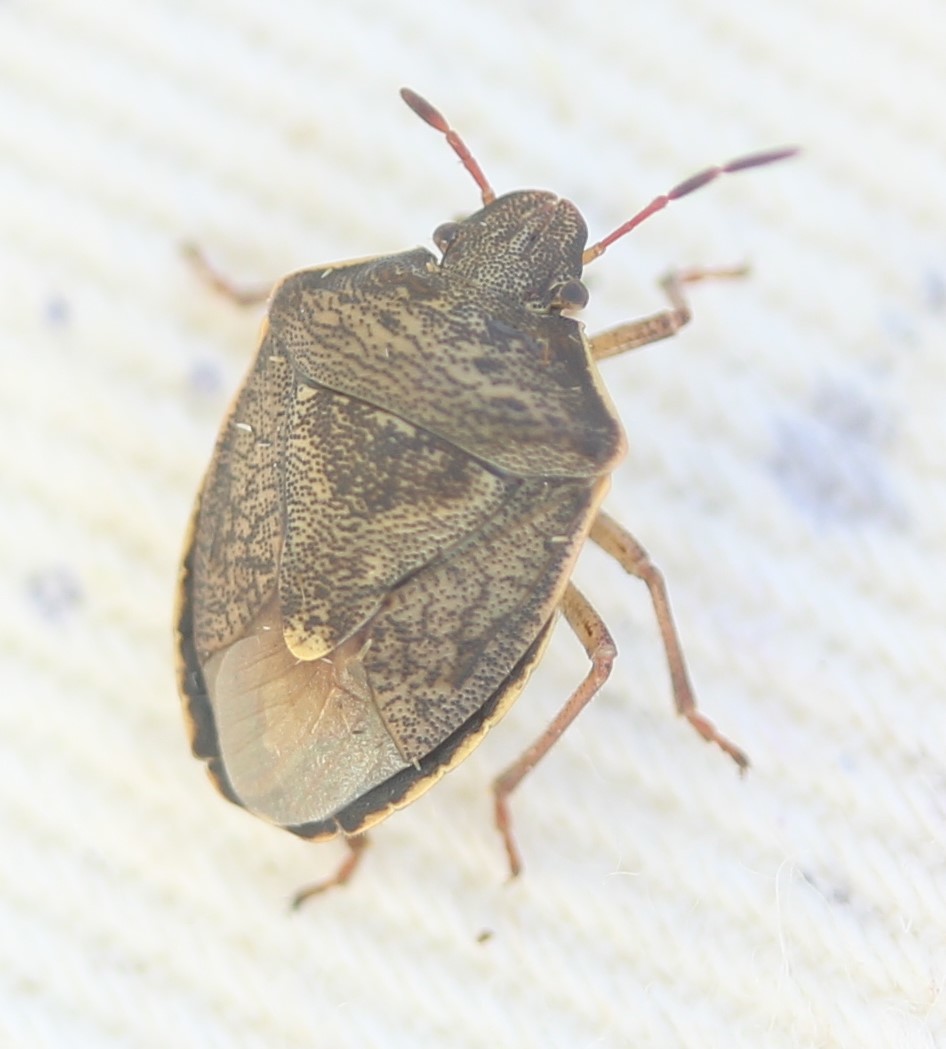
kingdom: Animalia
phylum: Arthropoda
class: Insecta
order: Hemiptera
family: Pentatomidae
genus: Holcostethus
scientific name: Holcostethus limbolarius
